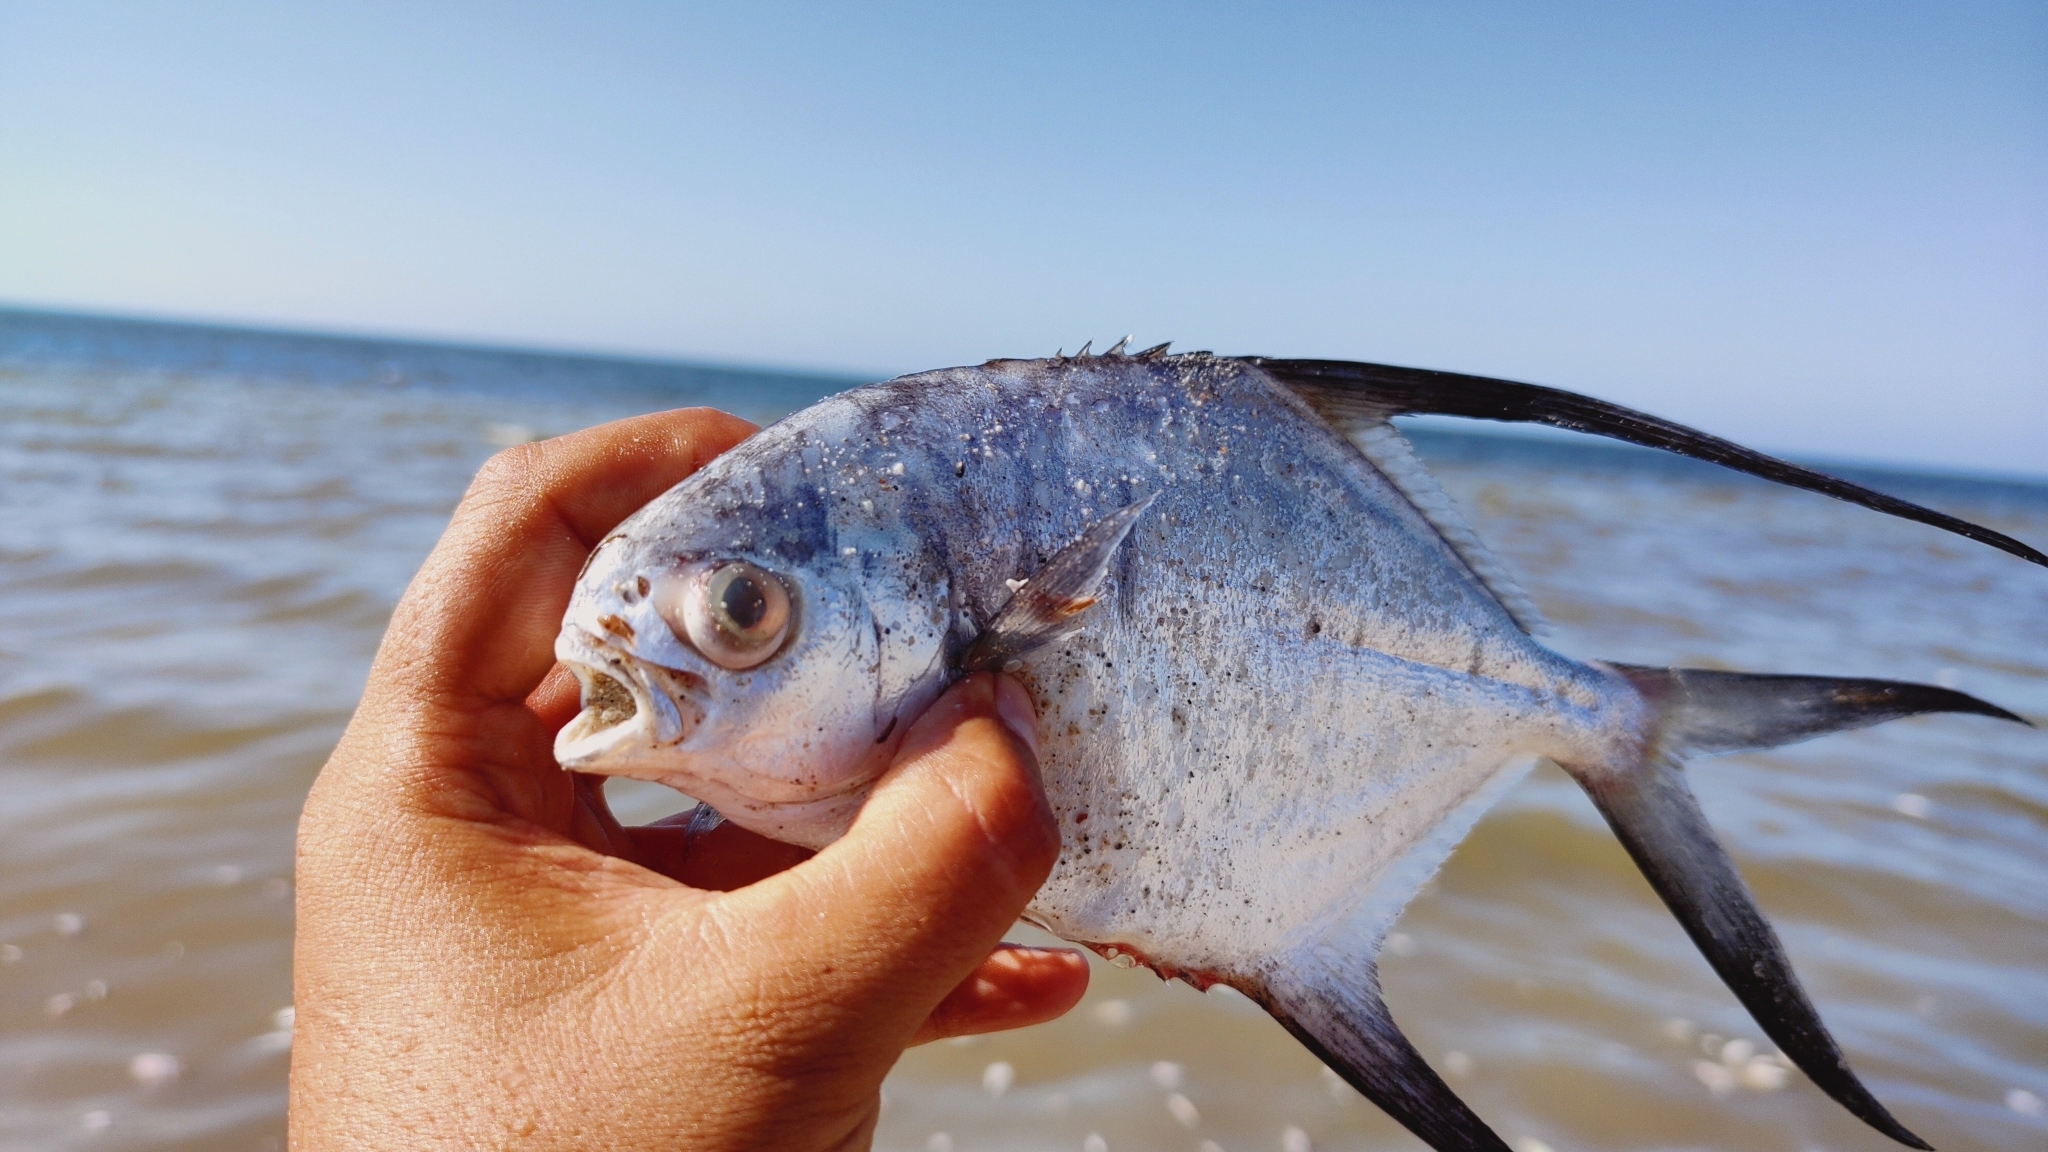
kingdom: Animalia
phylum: Chordata
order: Perciformes
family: Carangidae
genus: Trachinotus
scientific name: Trachinotus goodei
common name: Palometa
